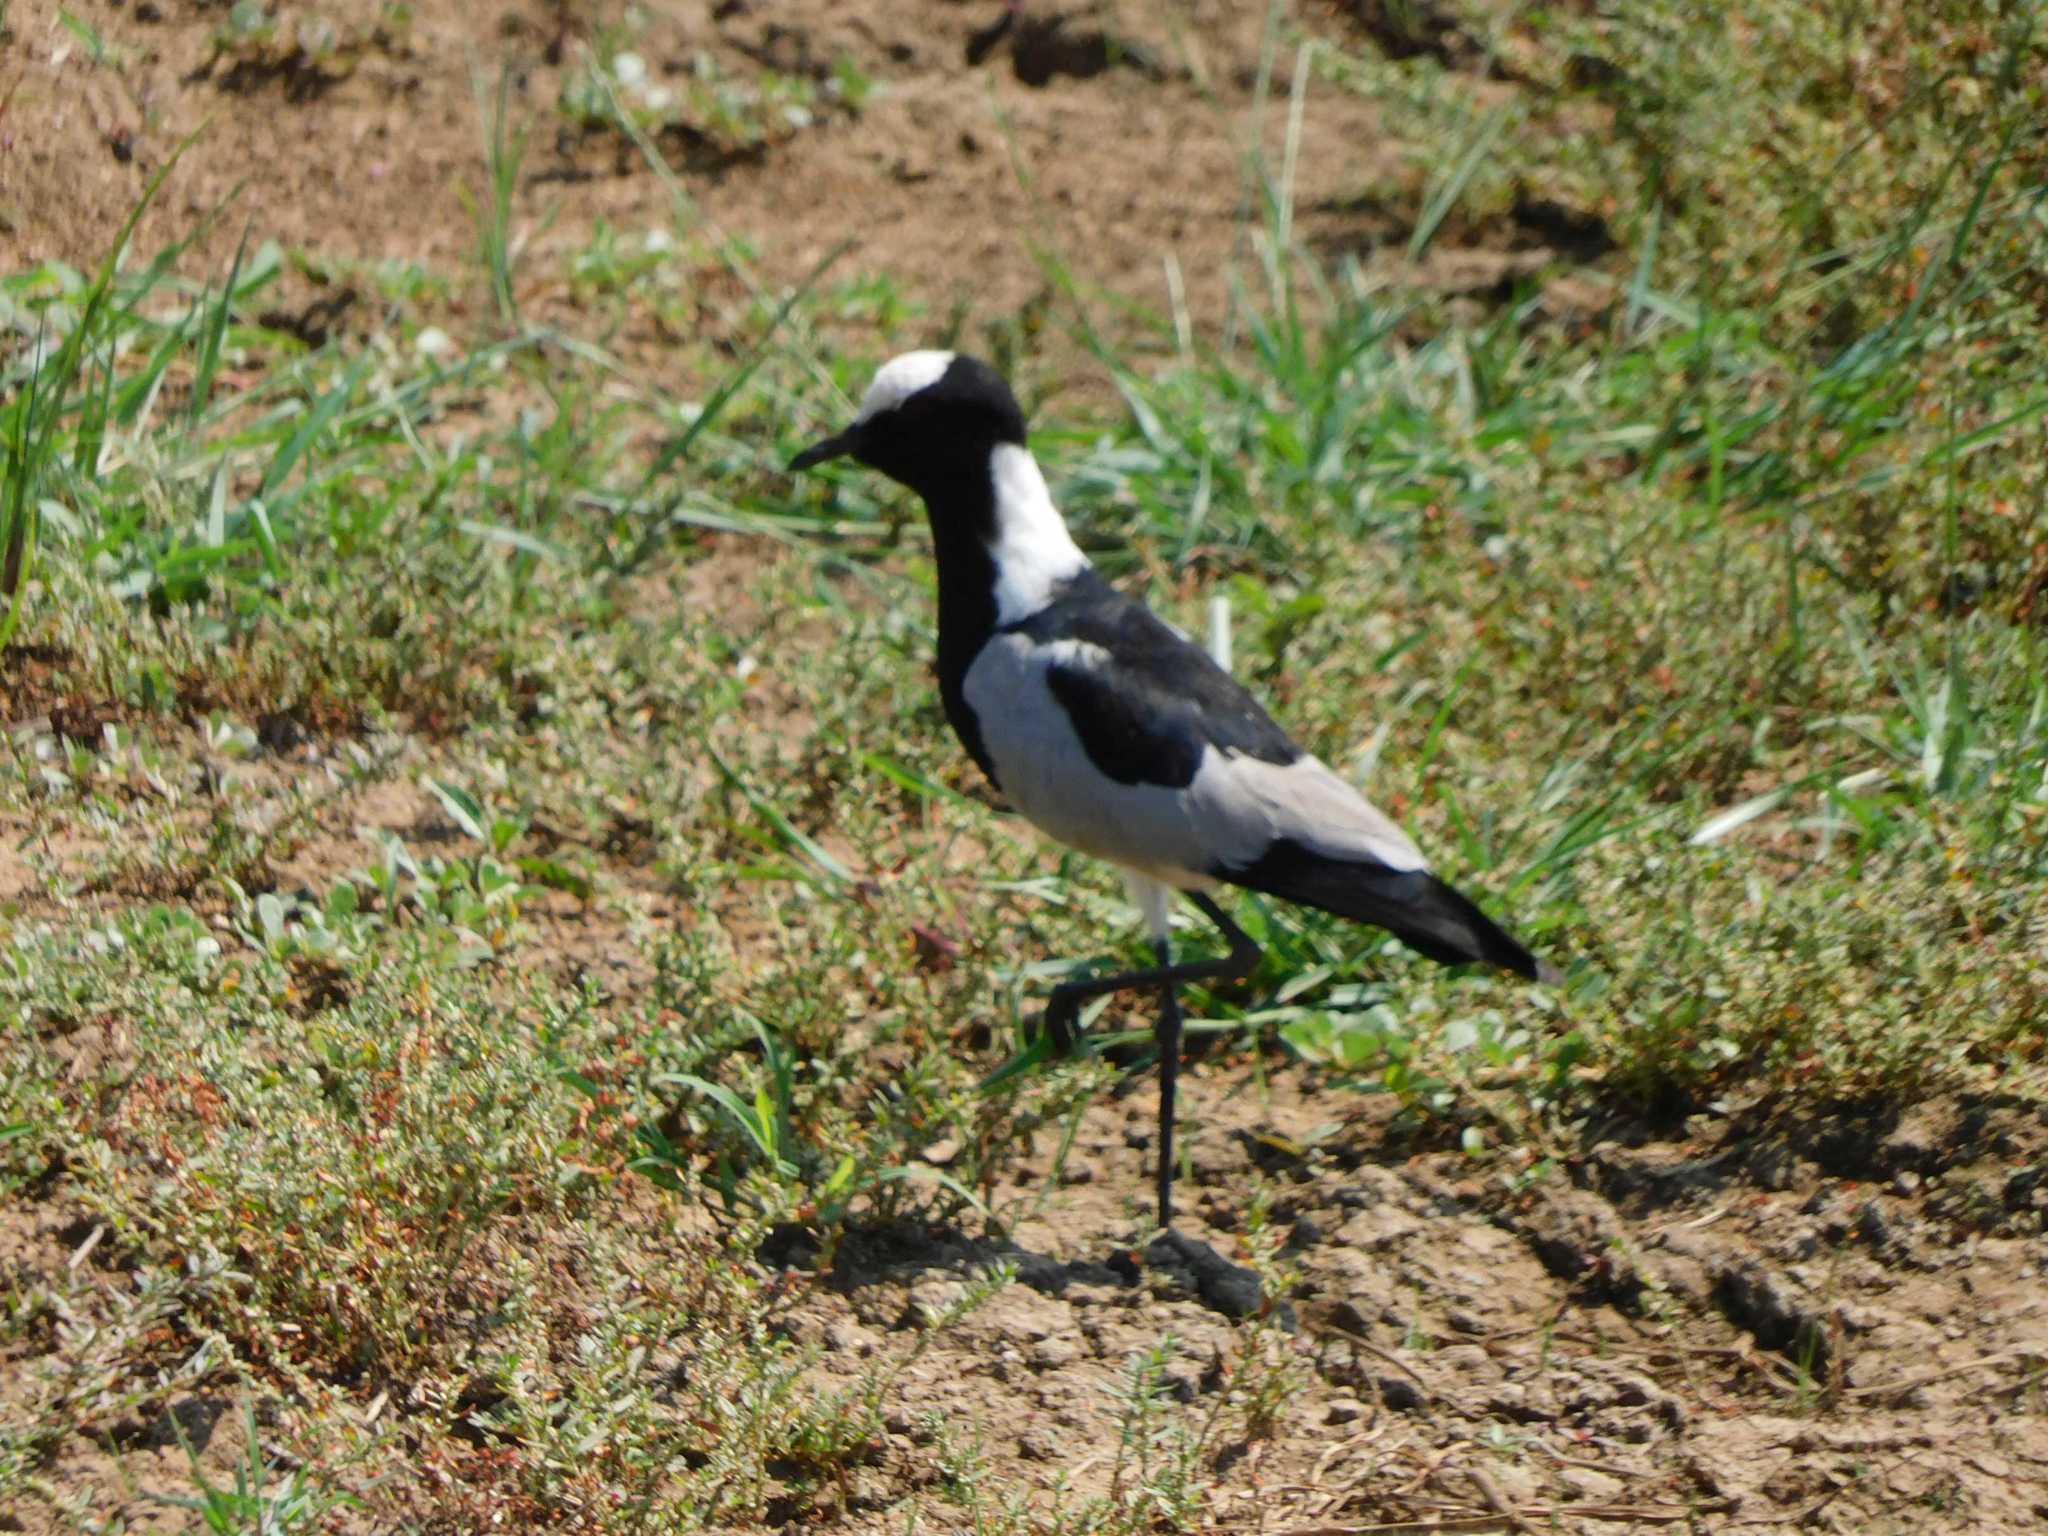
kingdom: Animalia
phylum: Chordata
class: Aves
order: Charadriiformes
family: Charadriidae
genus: Vanellus
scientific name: Vanellus armatus
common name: Blacksmith lapwing
